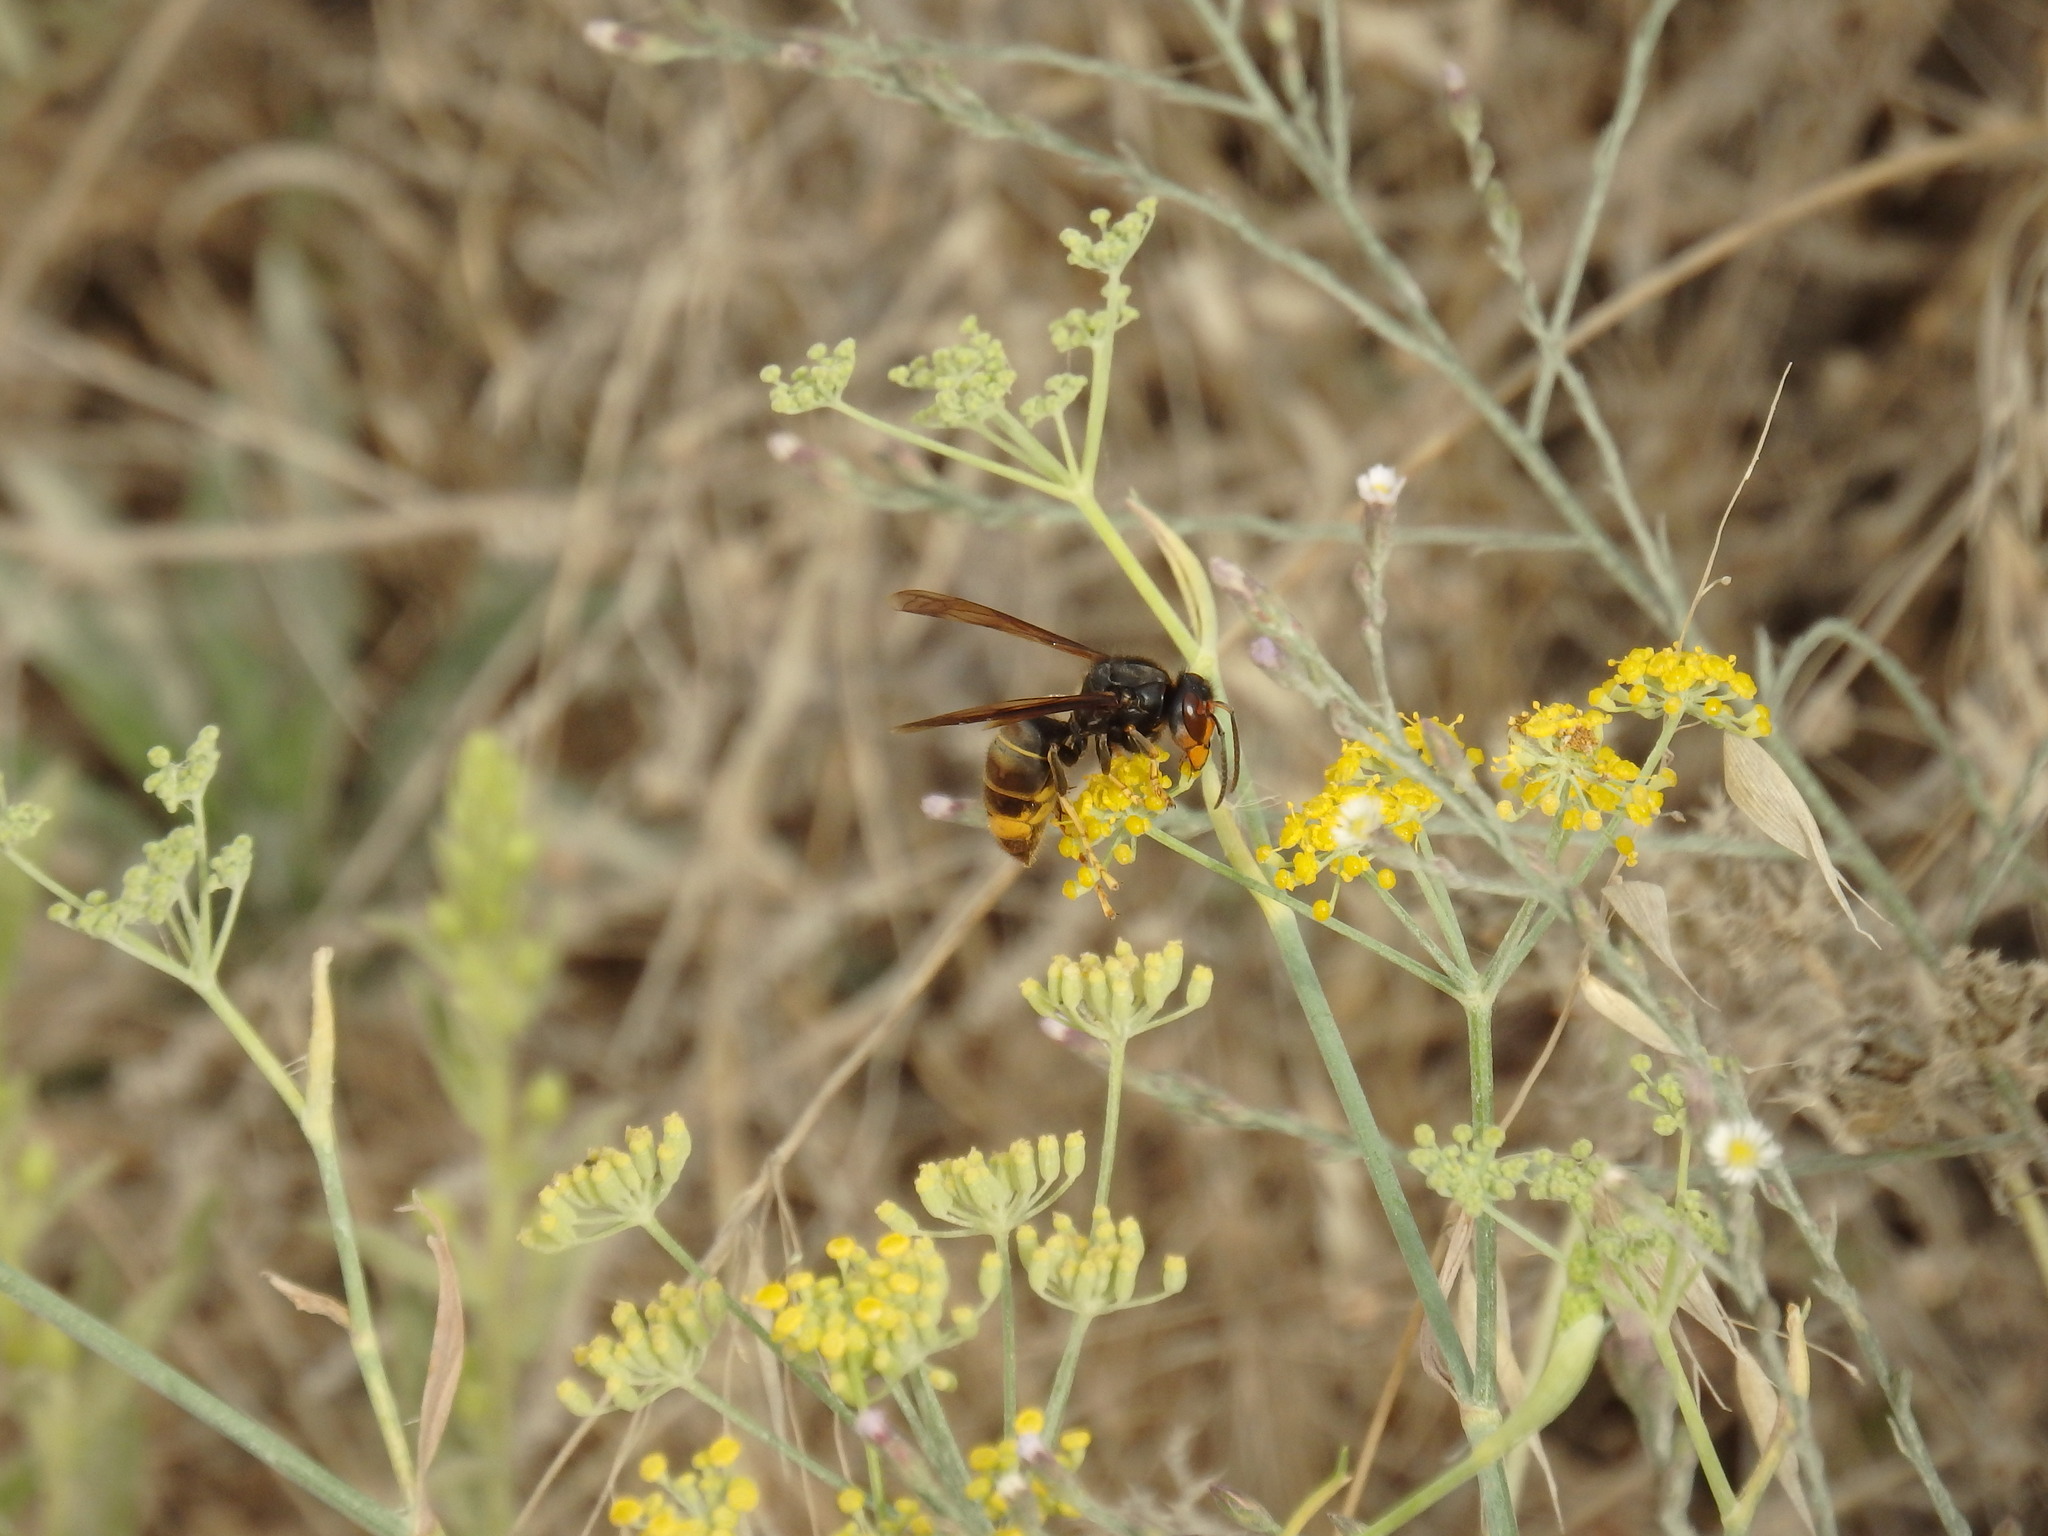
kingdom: Animalia
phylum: Arthropoda
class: Insecta
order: Hymenoptera
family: Vespidae
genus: Vespa
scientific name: Vespa velutina
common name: Asian hornet
